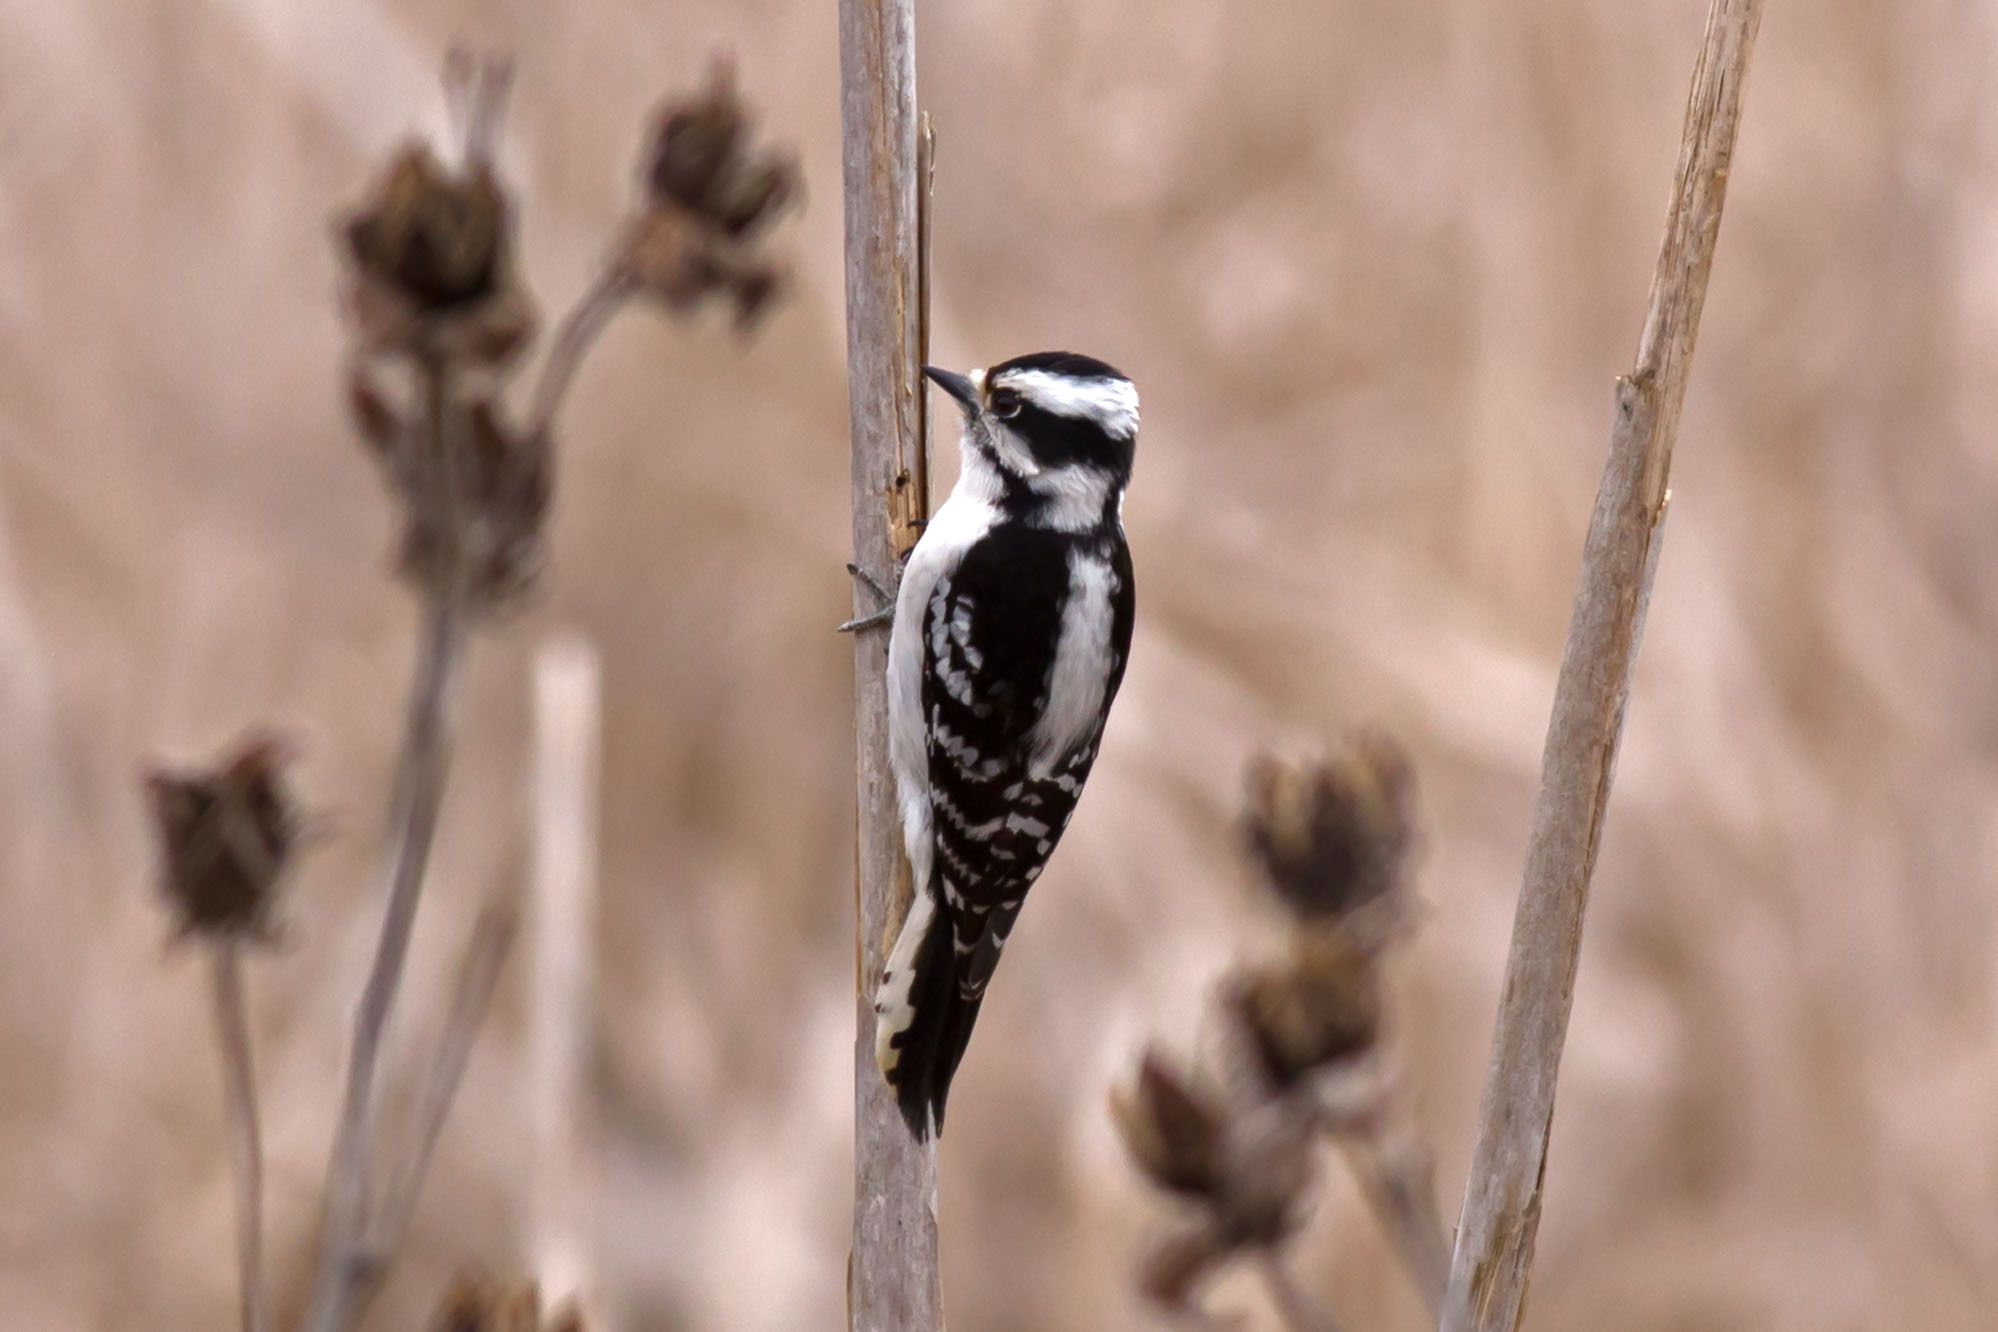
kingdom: Animalia
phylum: Chordata
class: Aves
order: Piciformes
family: Picidae
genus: Dryobates
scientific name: Dryobates pubescens
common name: Downy woodpecker
